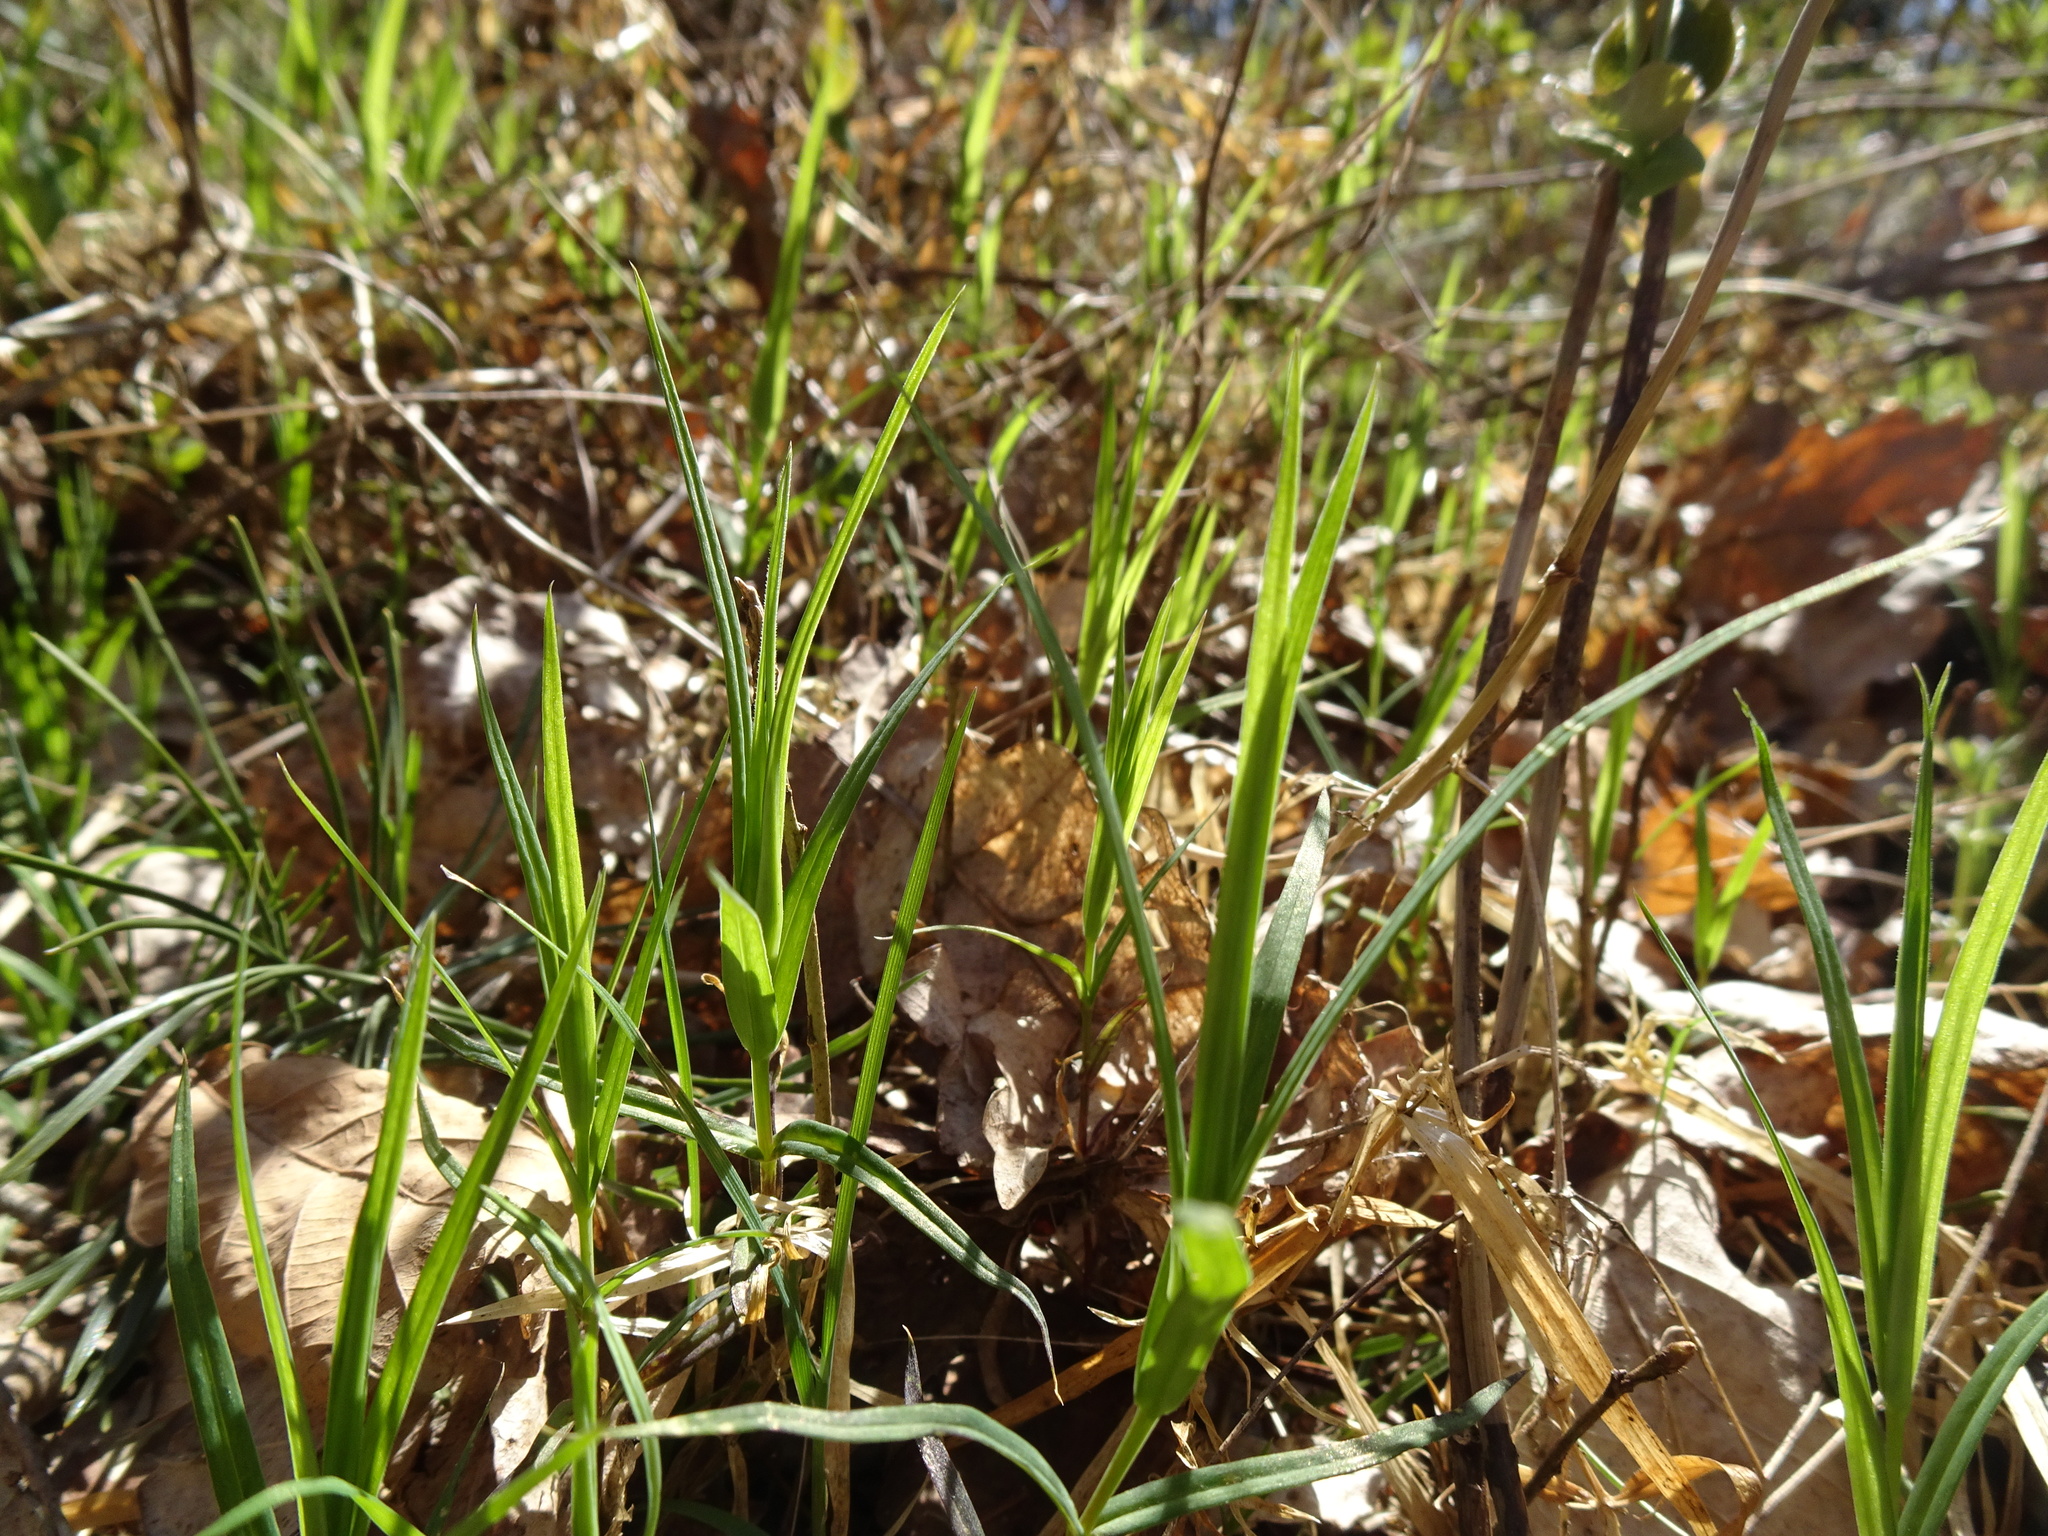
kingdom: Plantae
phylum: Tracheophyta
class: Magnoliopsida
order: Caryophyllales
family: Caryophyllaceae
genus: Rabelera
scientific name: Rabelera holostea
